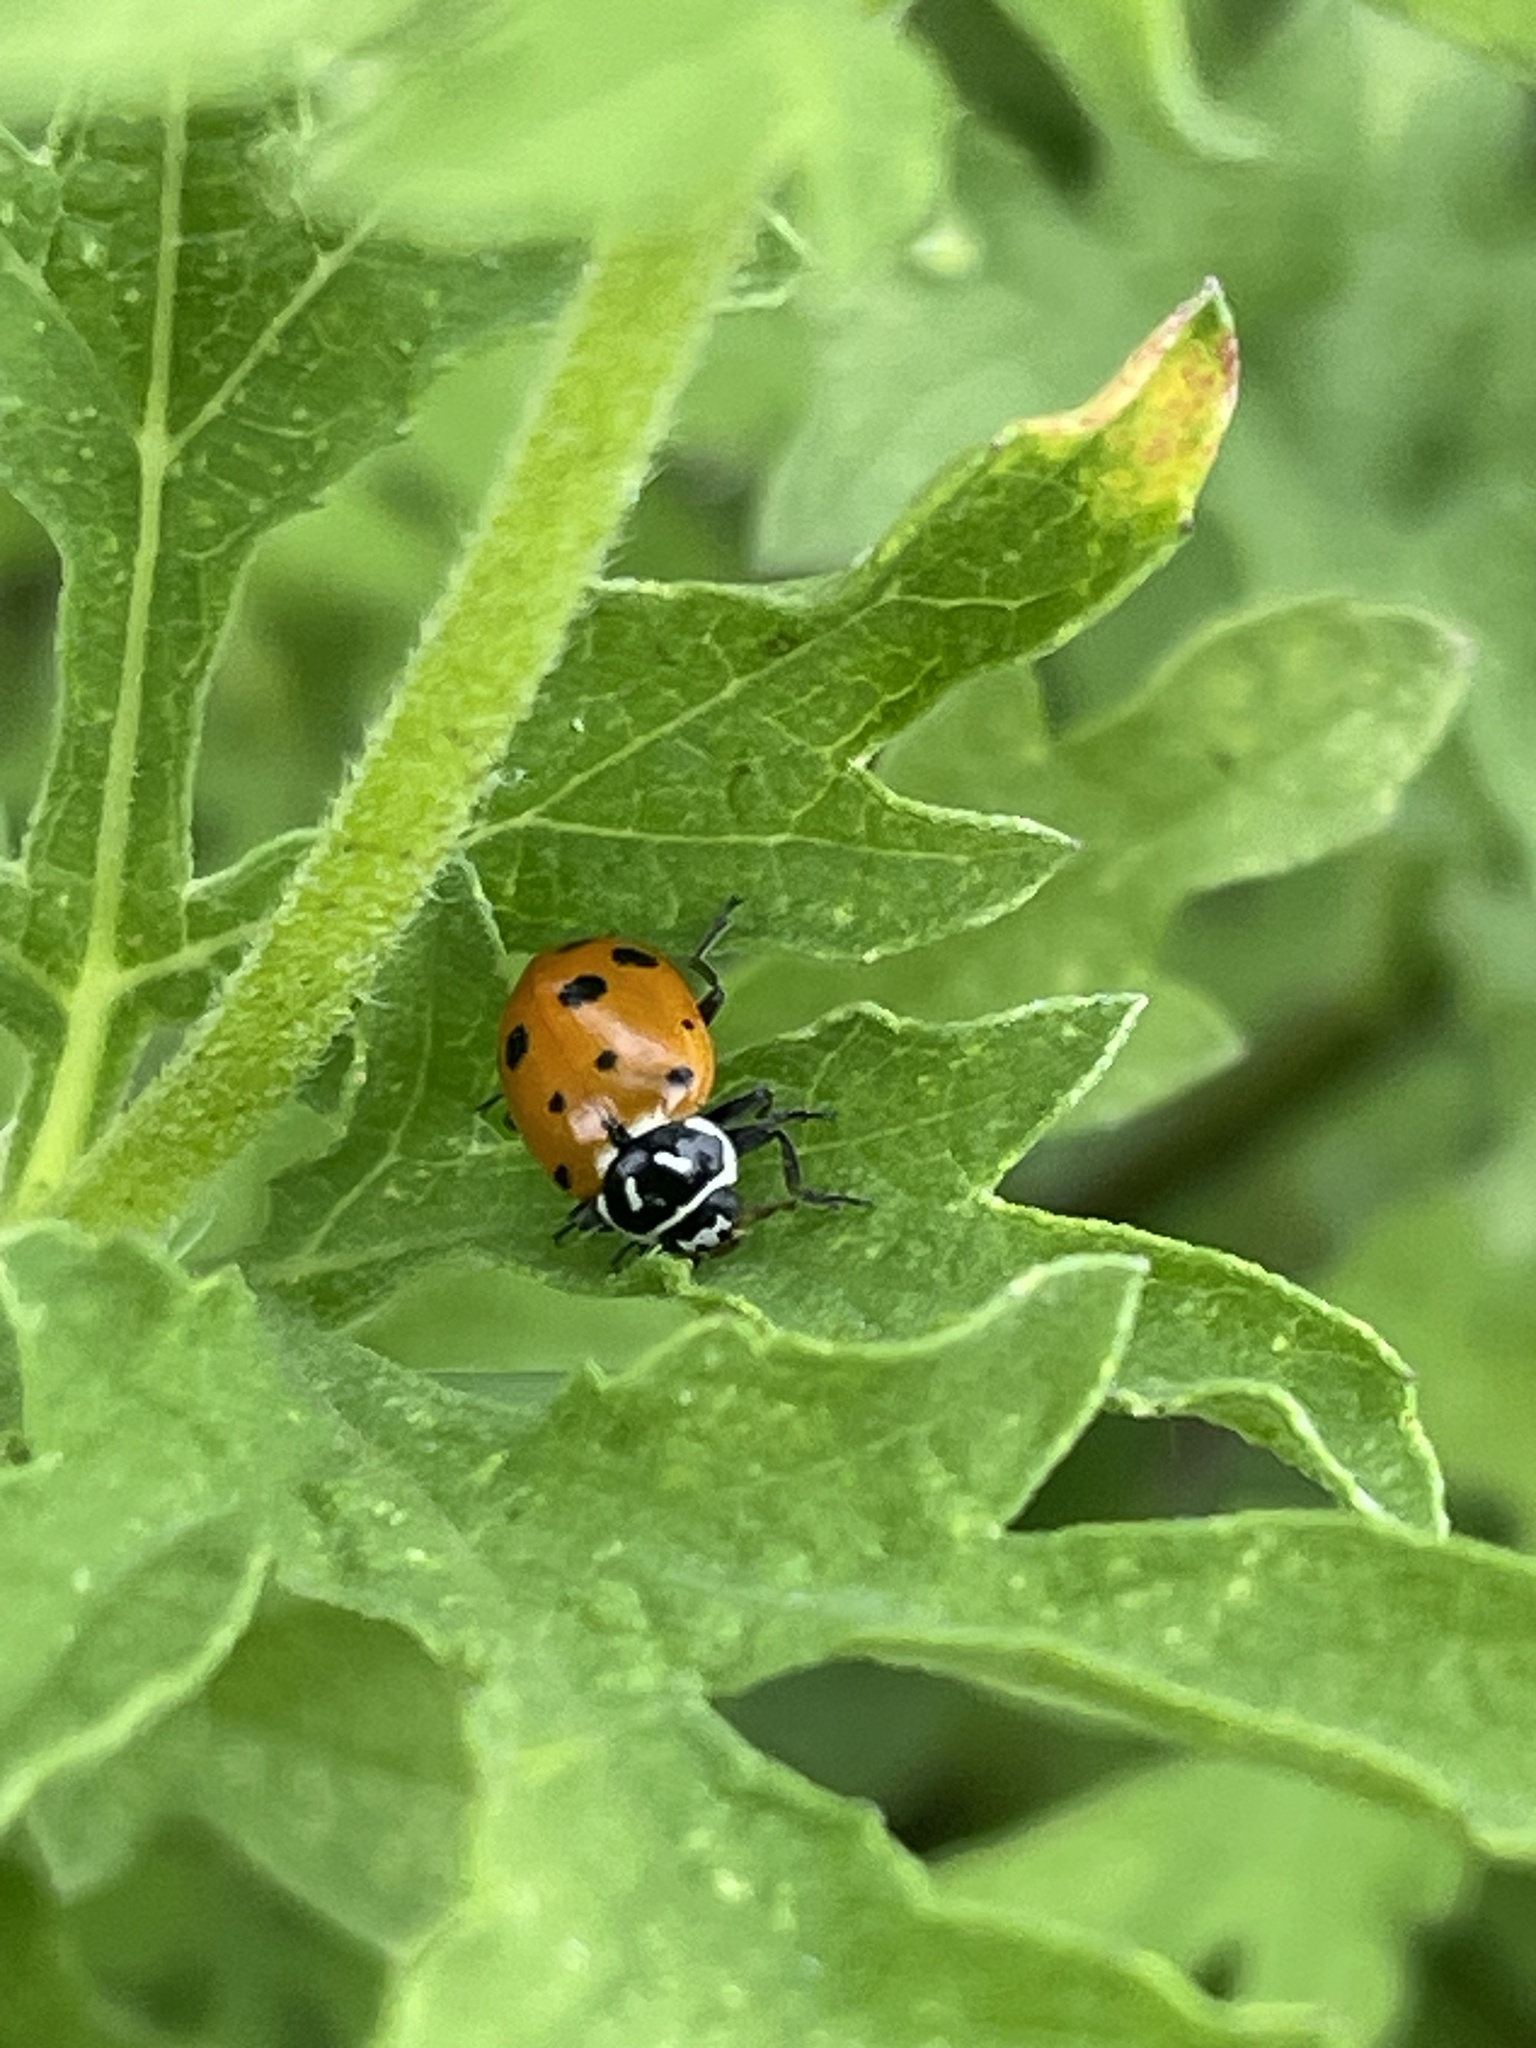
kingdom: Animalia
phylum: Arthropoda
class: Insecta
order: Coleoptera
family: Coccinellidae
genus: Hippodamia
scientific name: Hippodamia convergens
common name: Convergent lady beetle
